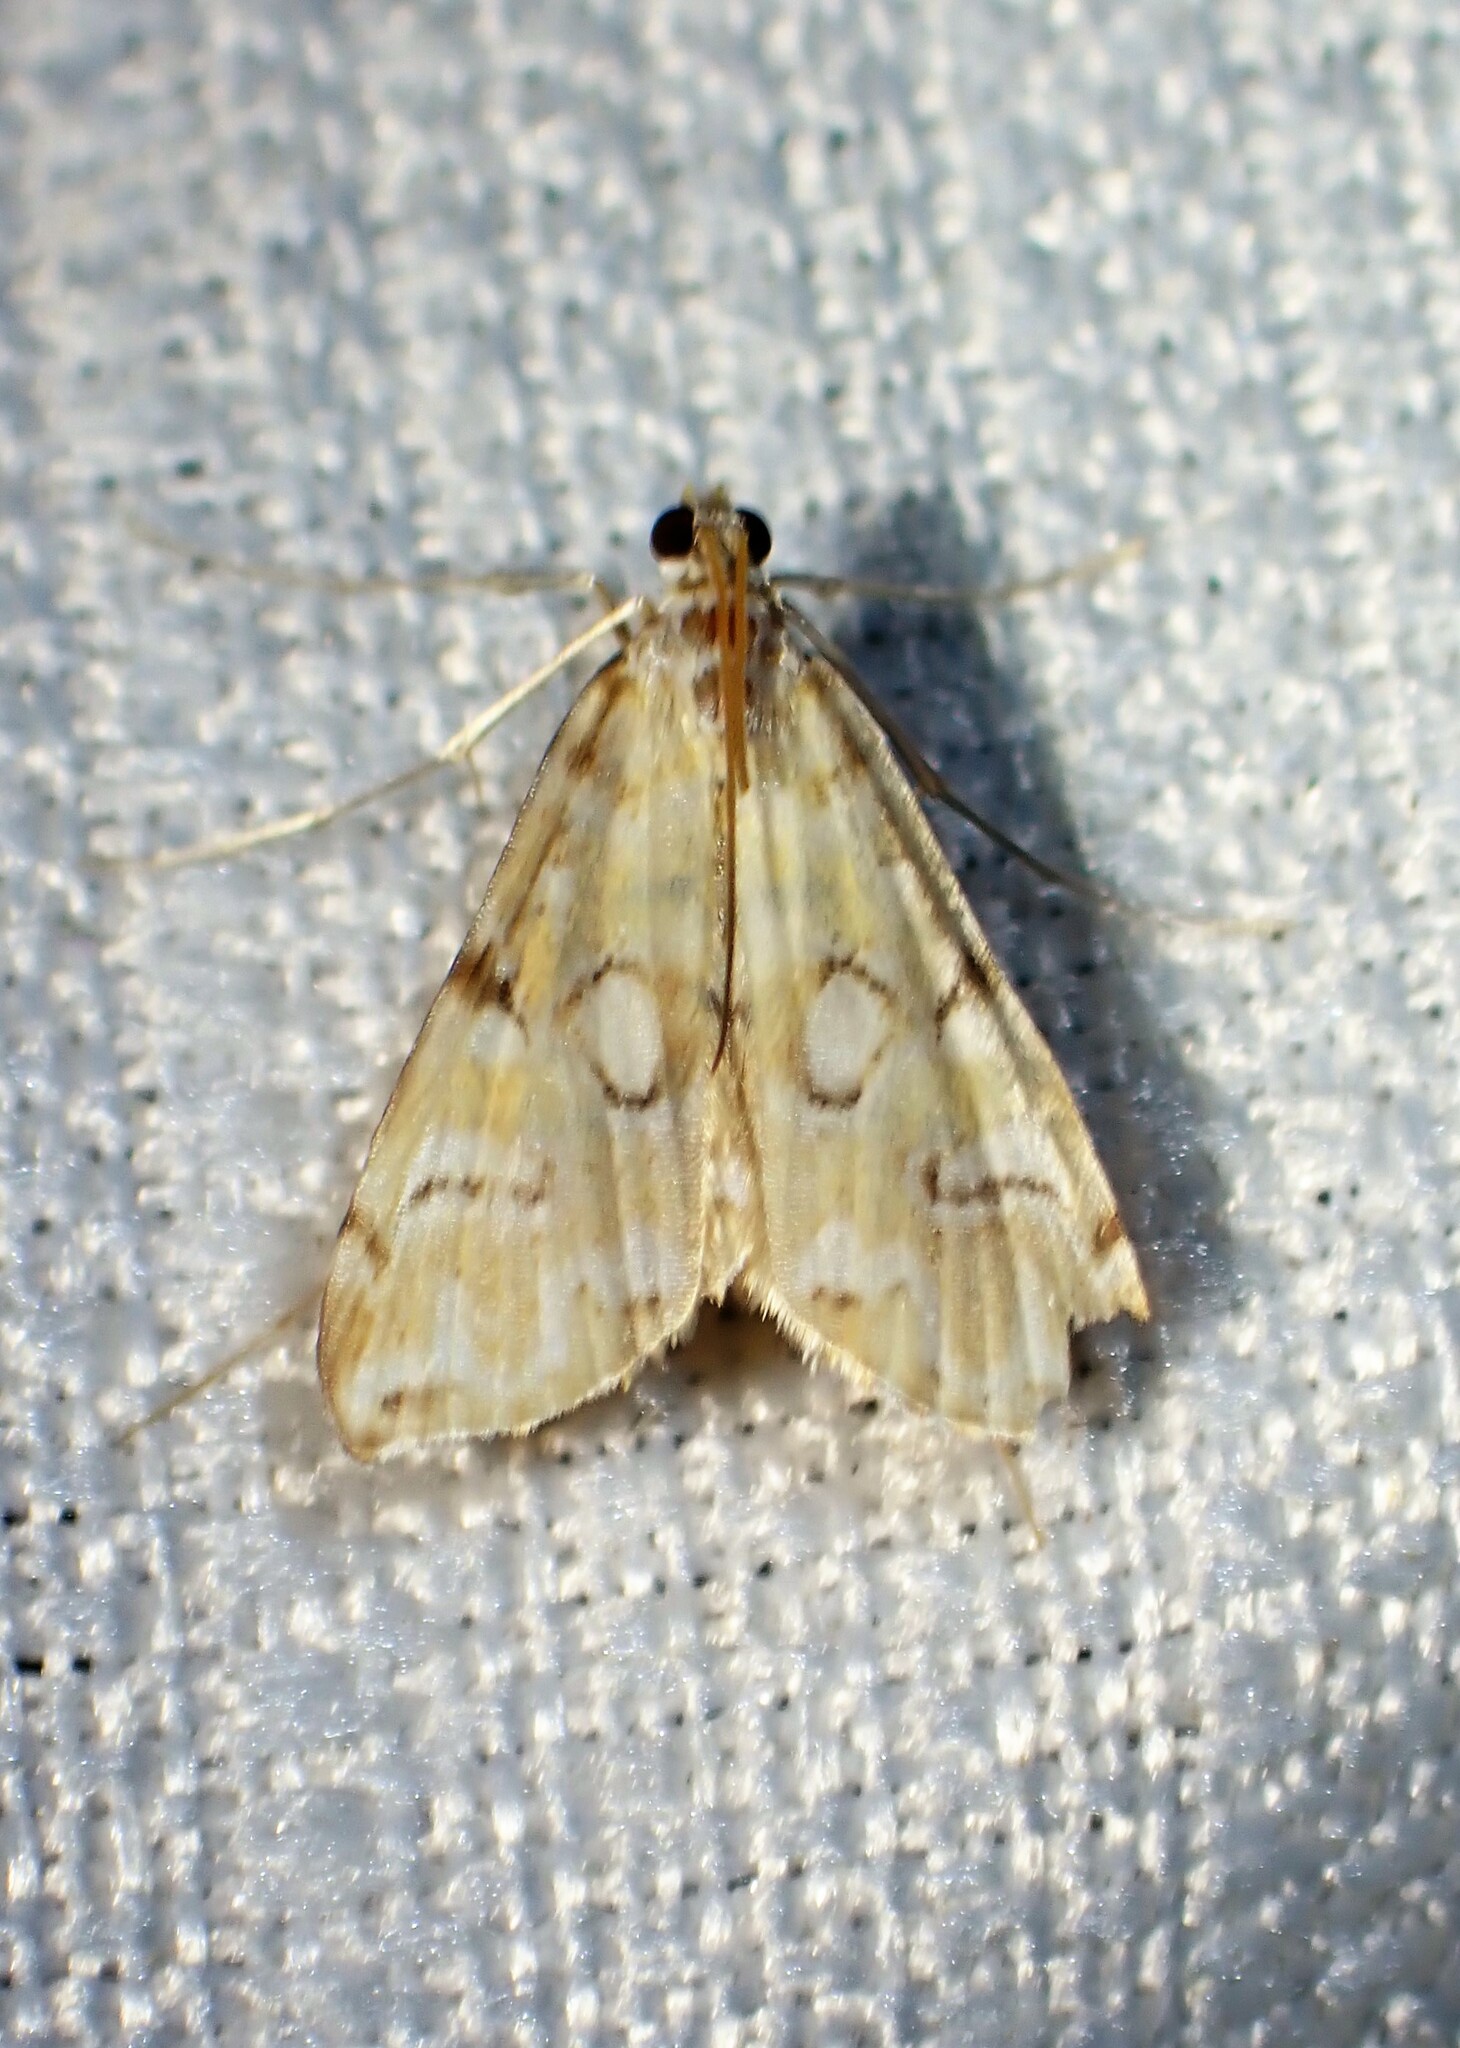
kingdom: Animalia
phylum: Arthropoda
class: Insecta
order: Lepidoptera
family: Crambidae
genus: Elophila
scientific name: Elophila icciusalis
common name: Pondside pyralid moth
